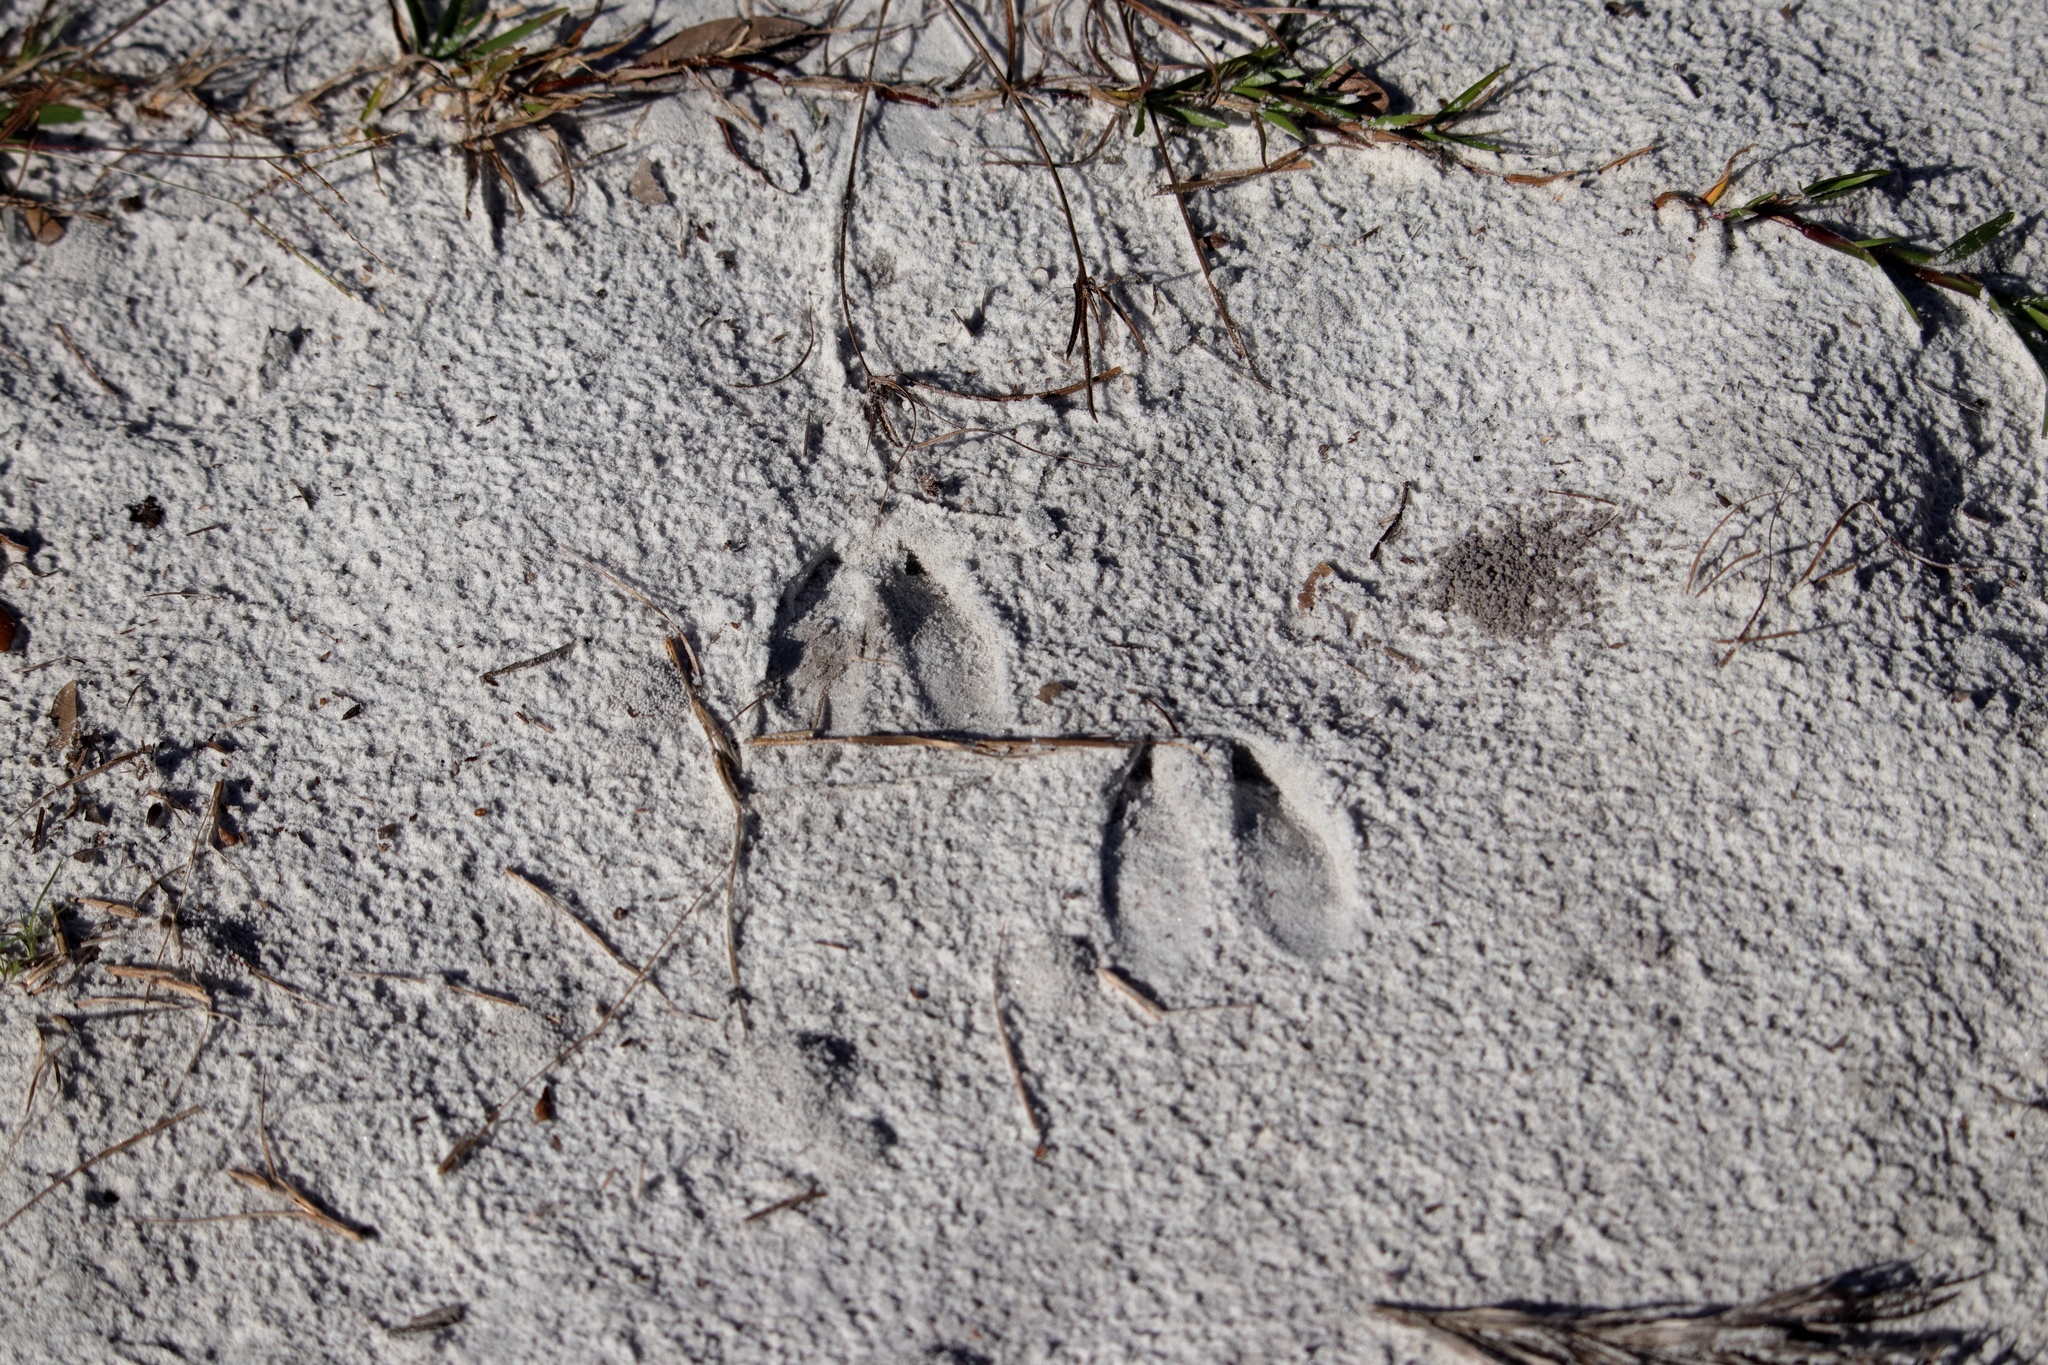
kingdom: Animalia
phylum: Chordata
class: Mammalia
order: Artiodactyla
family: Cervidae
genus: Odocoileus
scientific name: Odocoileus virginianus
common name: White-tailed deer
